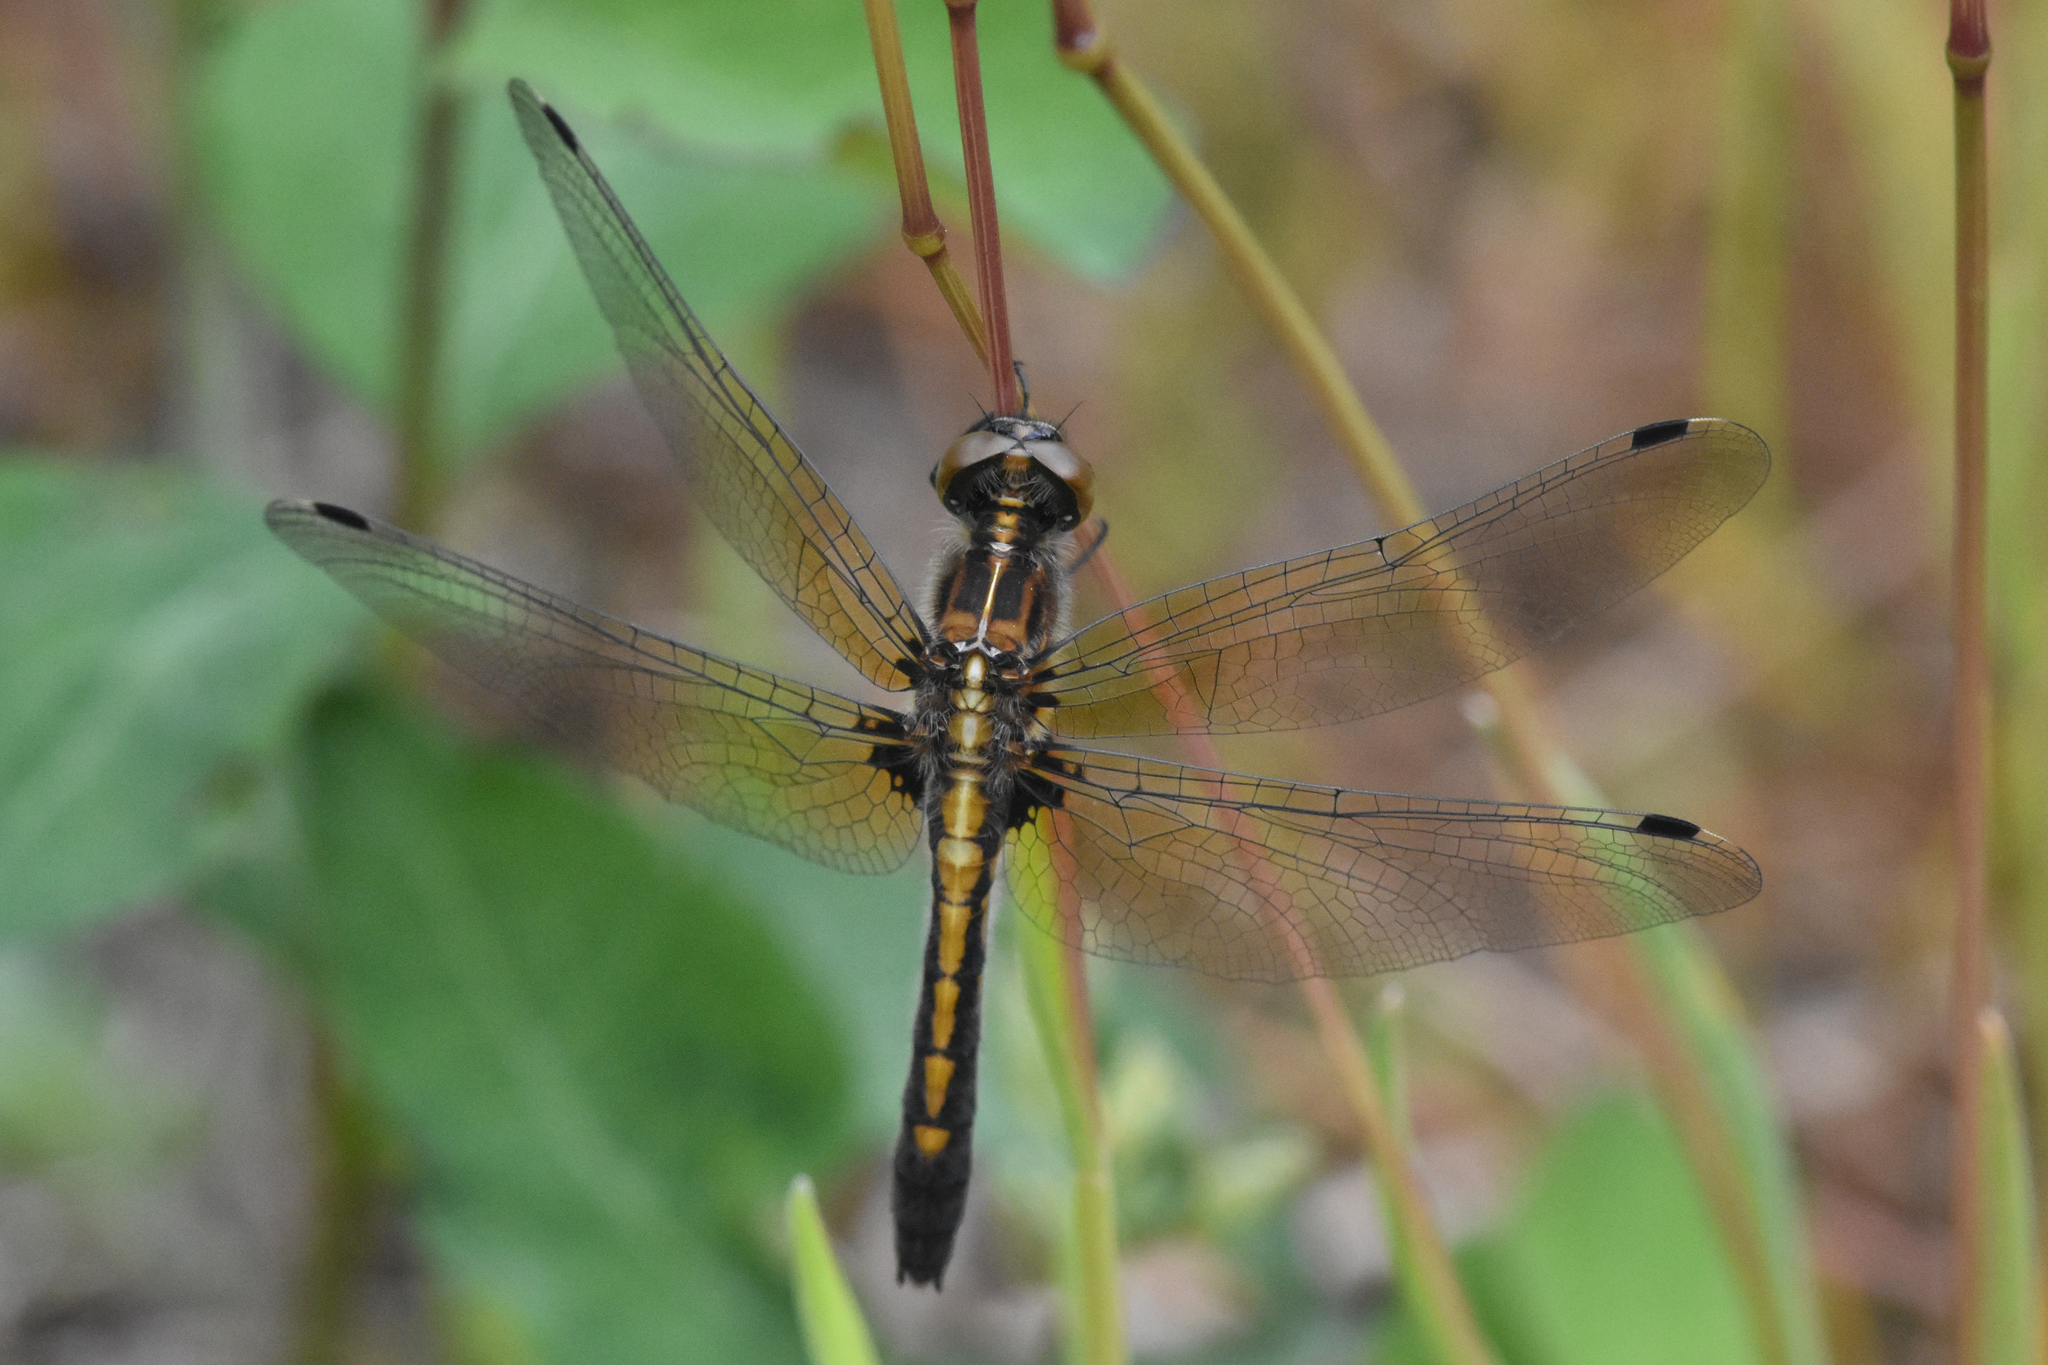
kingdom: Animalia
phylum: Arthropoda
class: Insecta
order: Odonata
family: Libellulidae
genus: Leucorrhinia
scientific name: Leucorrhinia intacta
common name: Dot-tailed whiteface
